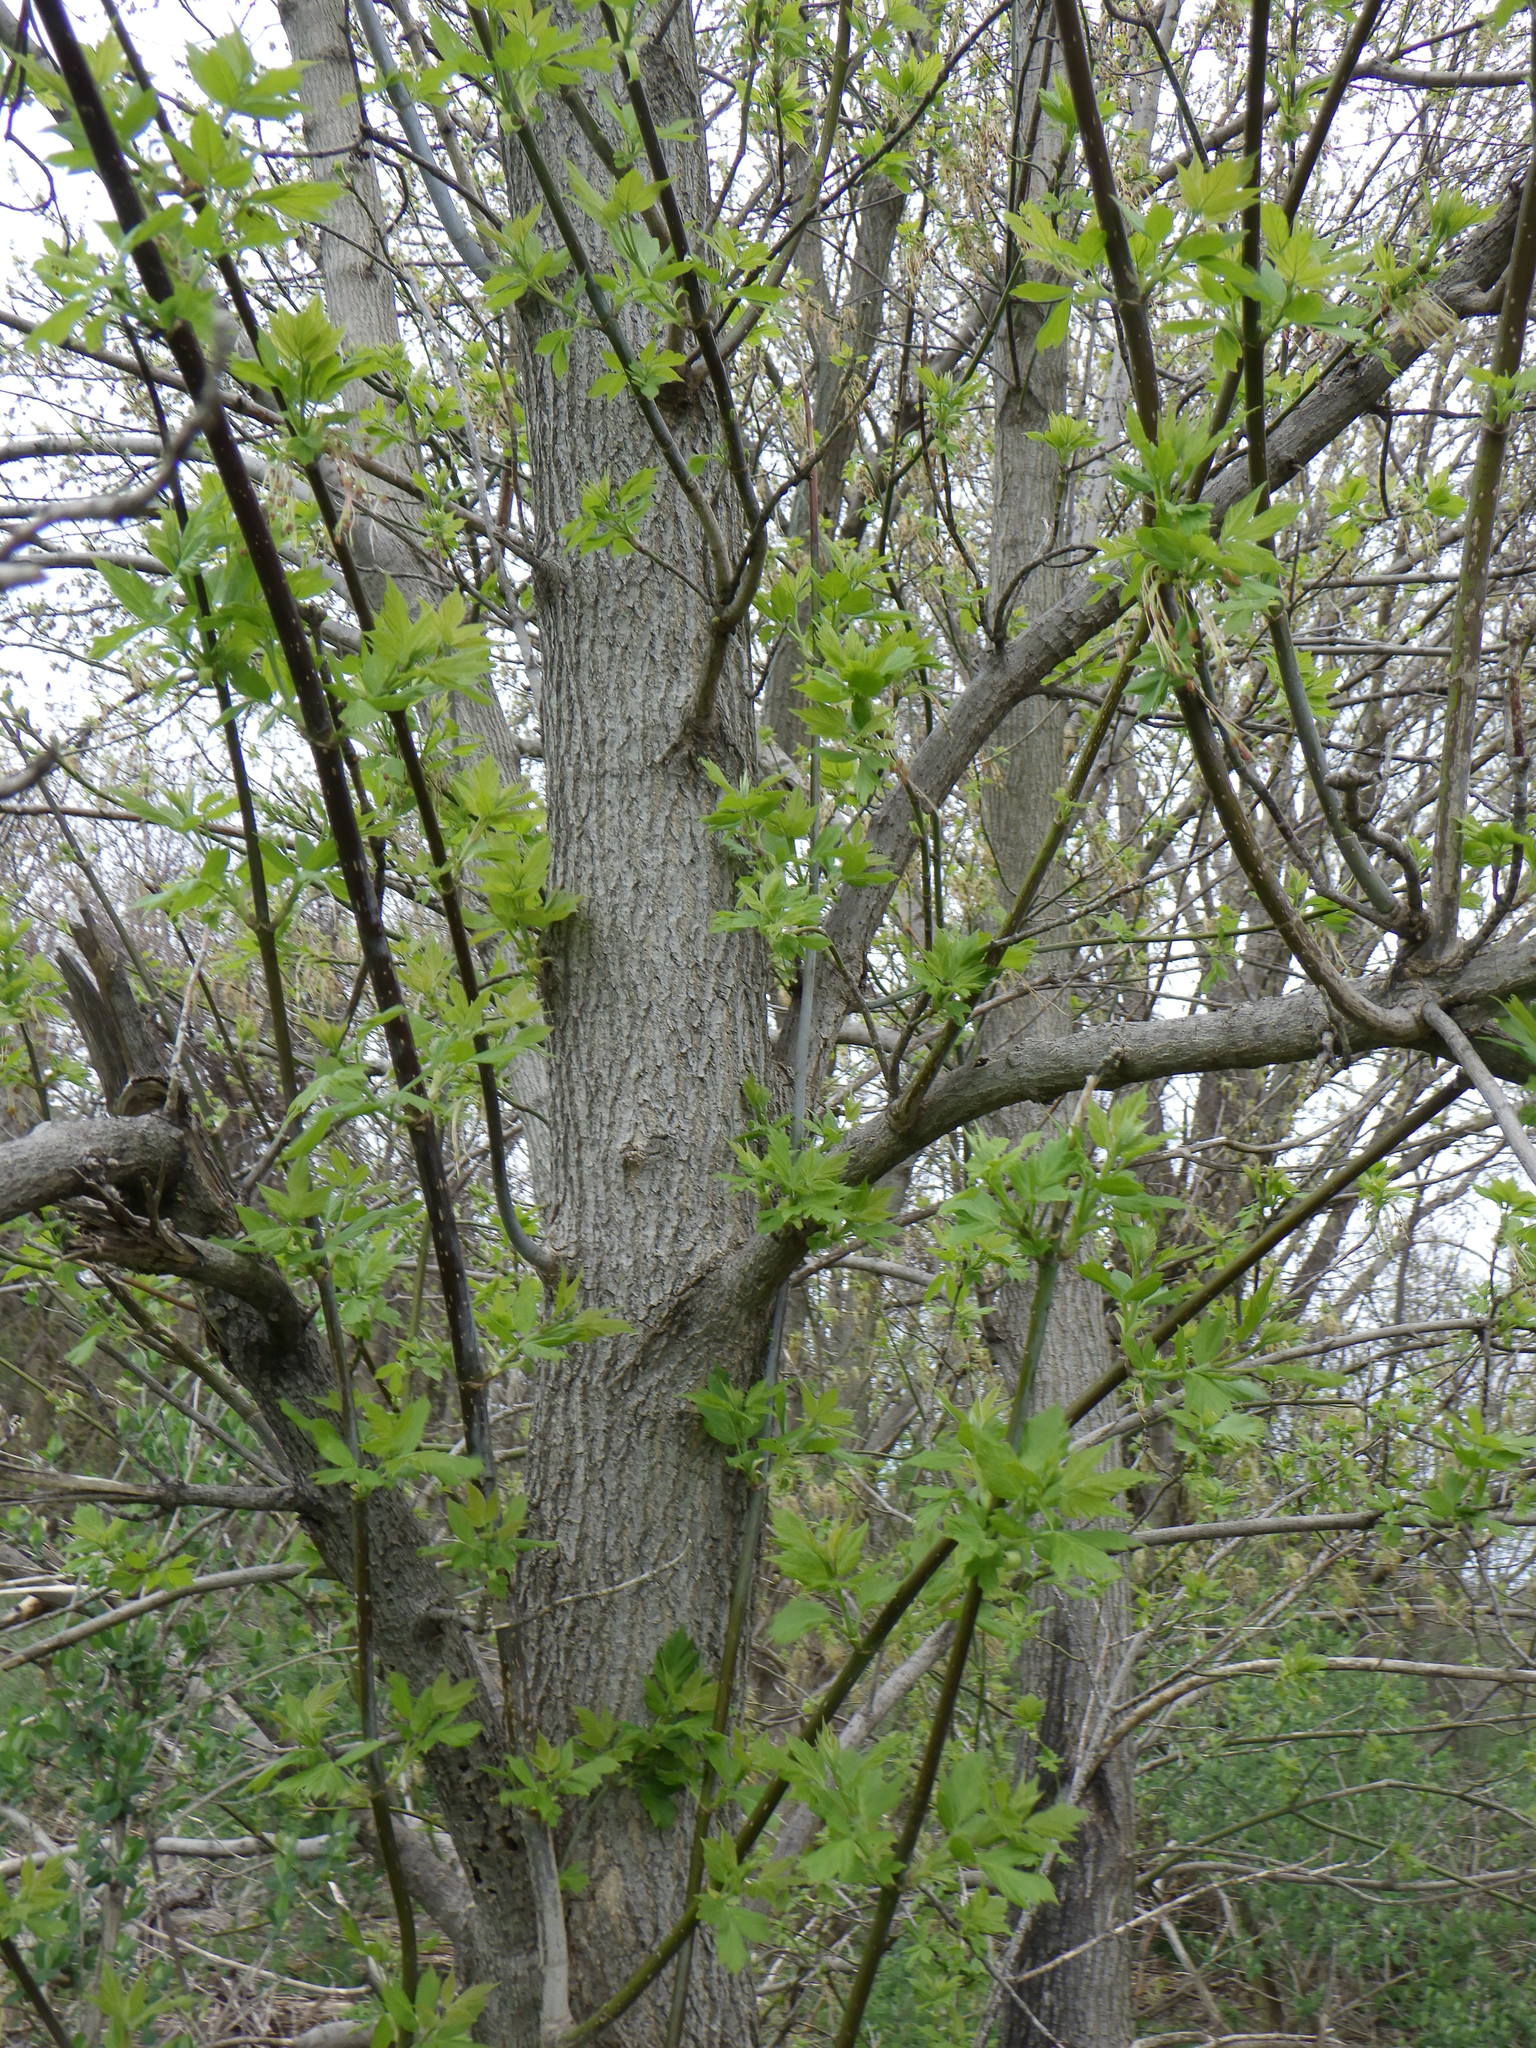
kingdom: Plantae
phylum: Tracheophyta
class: Magnoliopsida
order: Sapindales
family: Sapindaceae
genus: Acer
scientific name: Acer negundo
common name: Ashleaf maple
